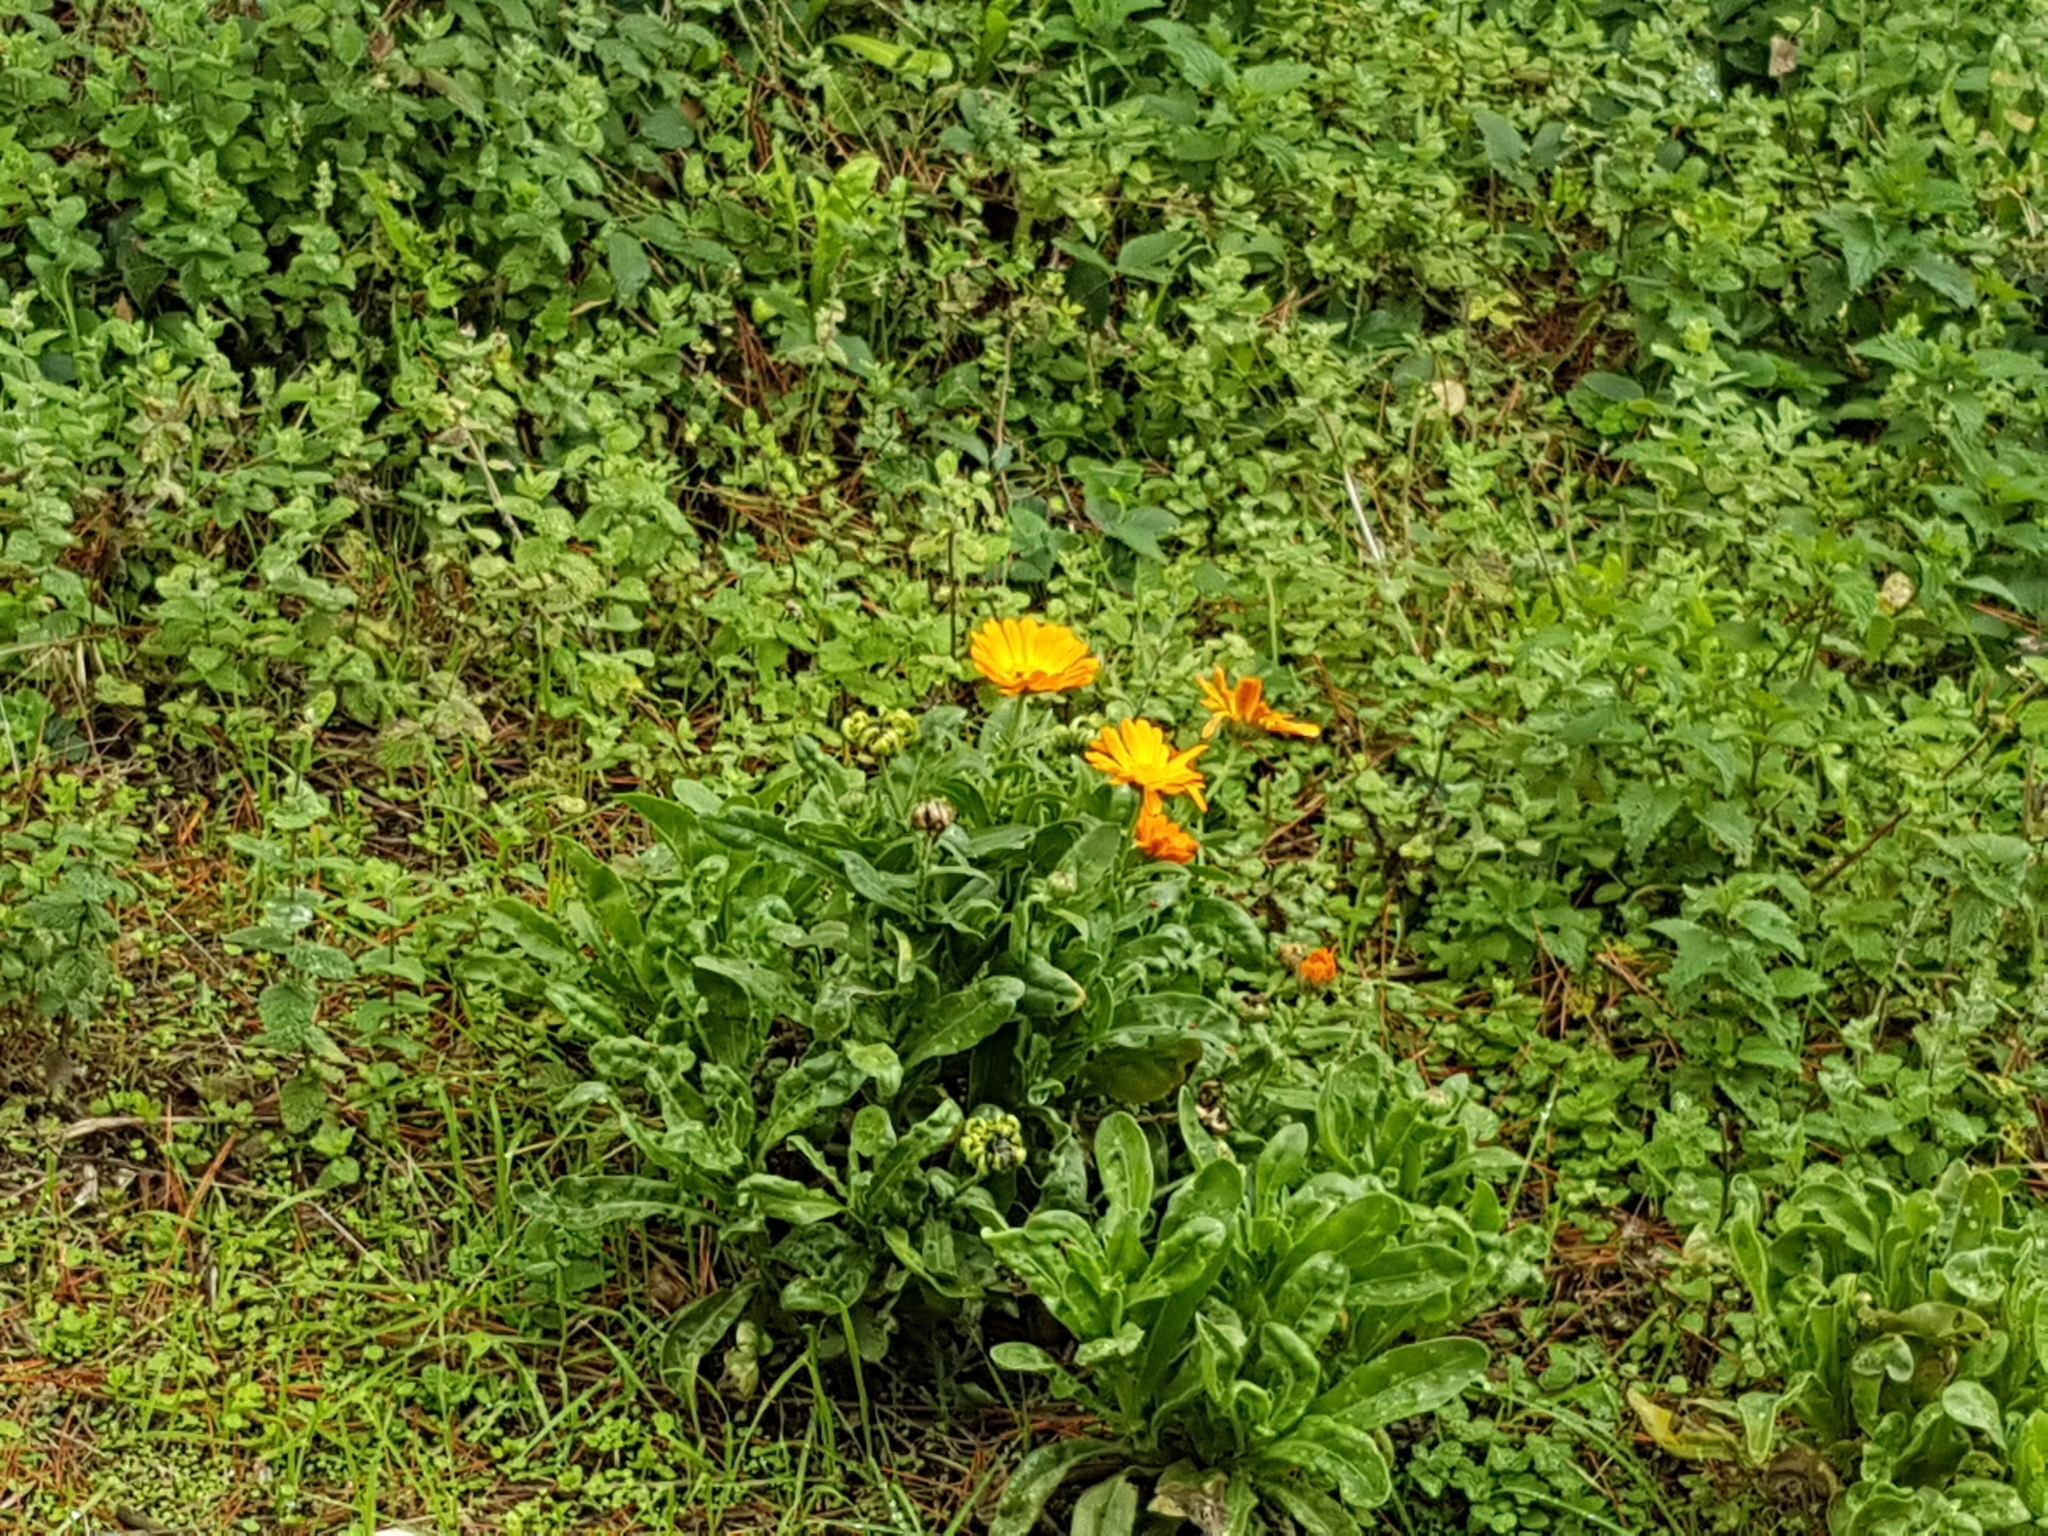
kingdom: Plantae
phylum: Tracheophyta
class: Magnoliopsida
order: Asterales
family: Asteraceae
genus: Calendula
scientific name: Calendula officinalis
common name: Pot marigold
